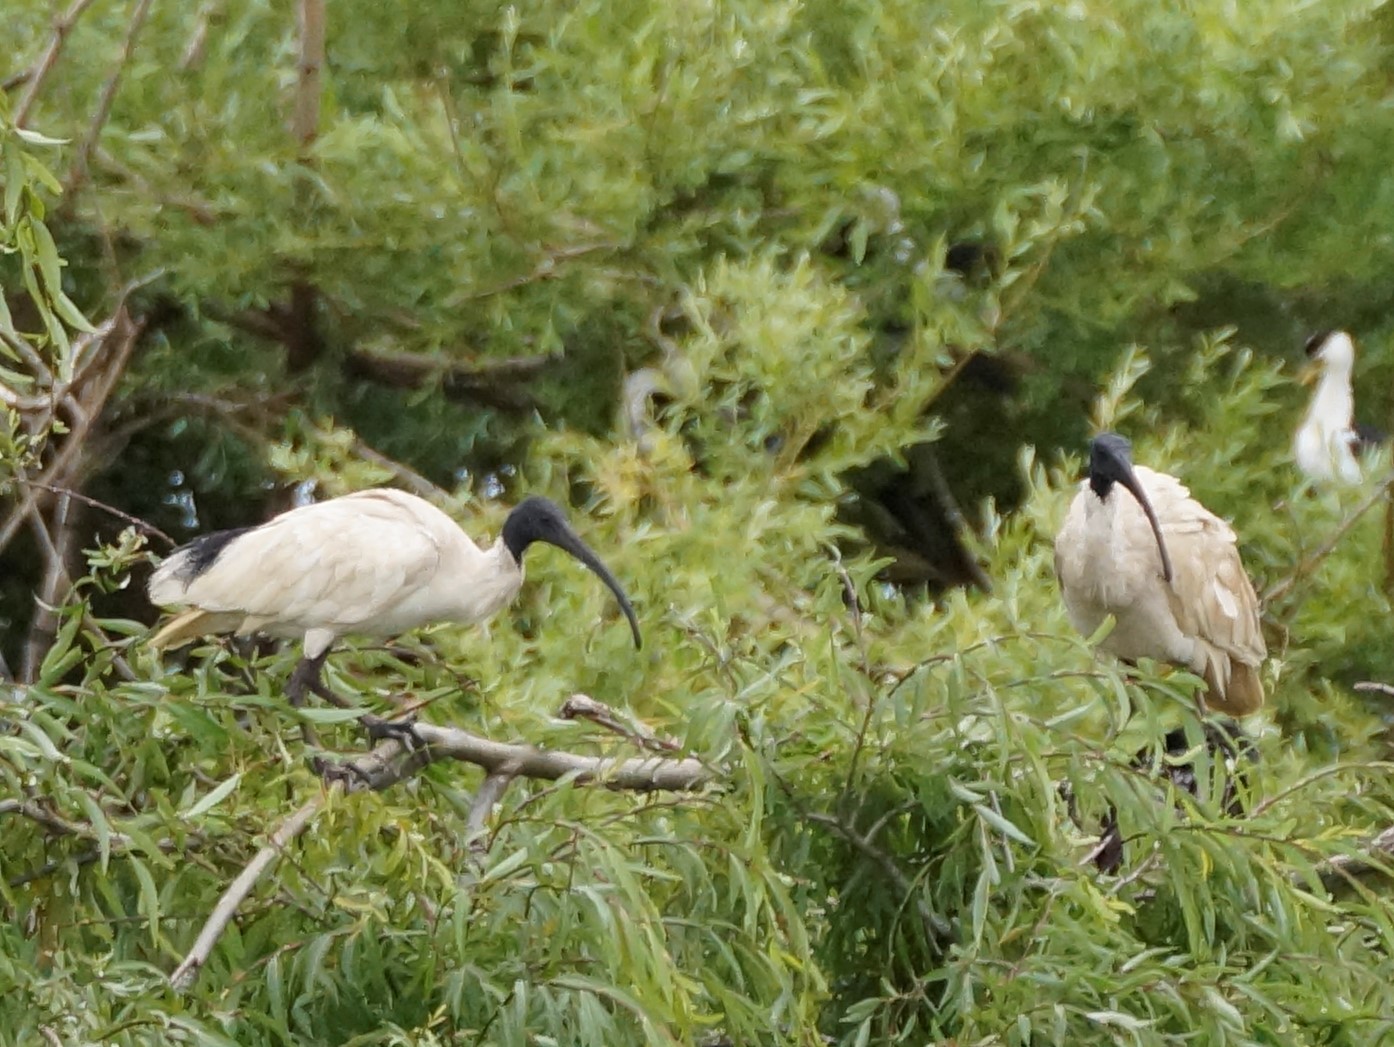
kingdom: Animalia
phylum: Chordata
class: Aves
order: Pelecaniformes
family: Threskiornithidae
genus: Threskiornis
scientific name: Threskiornis molucca
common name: Australian white ibis
